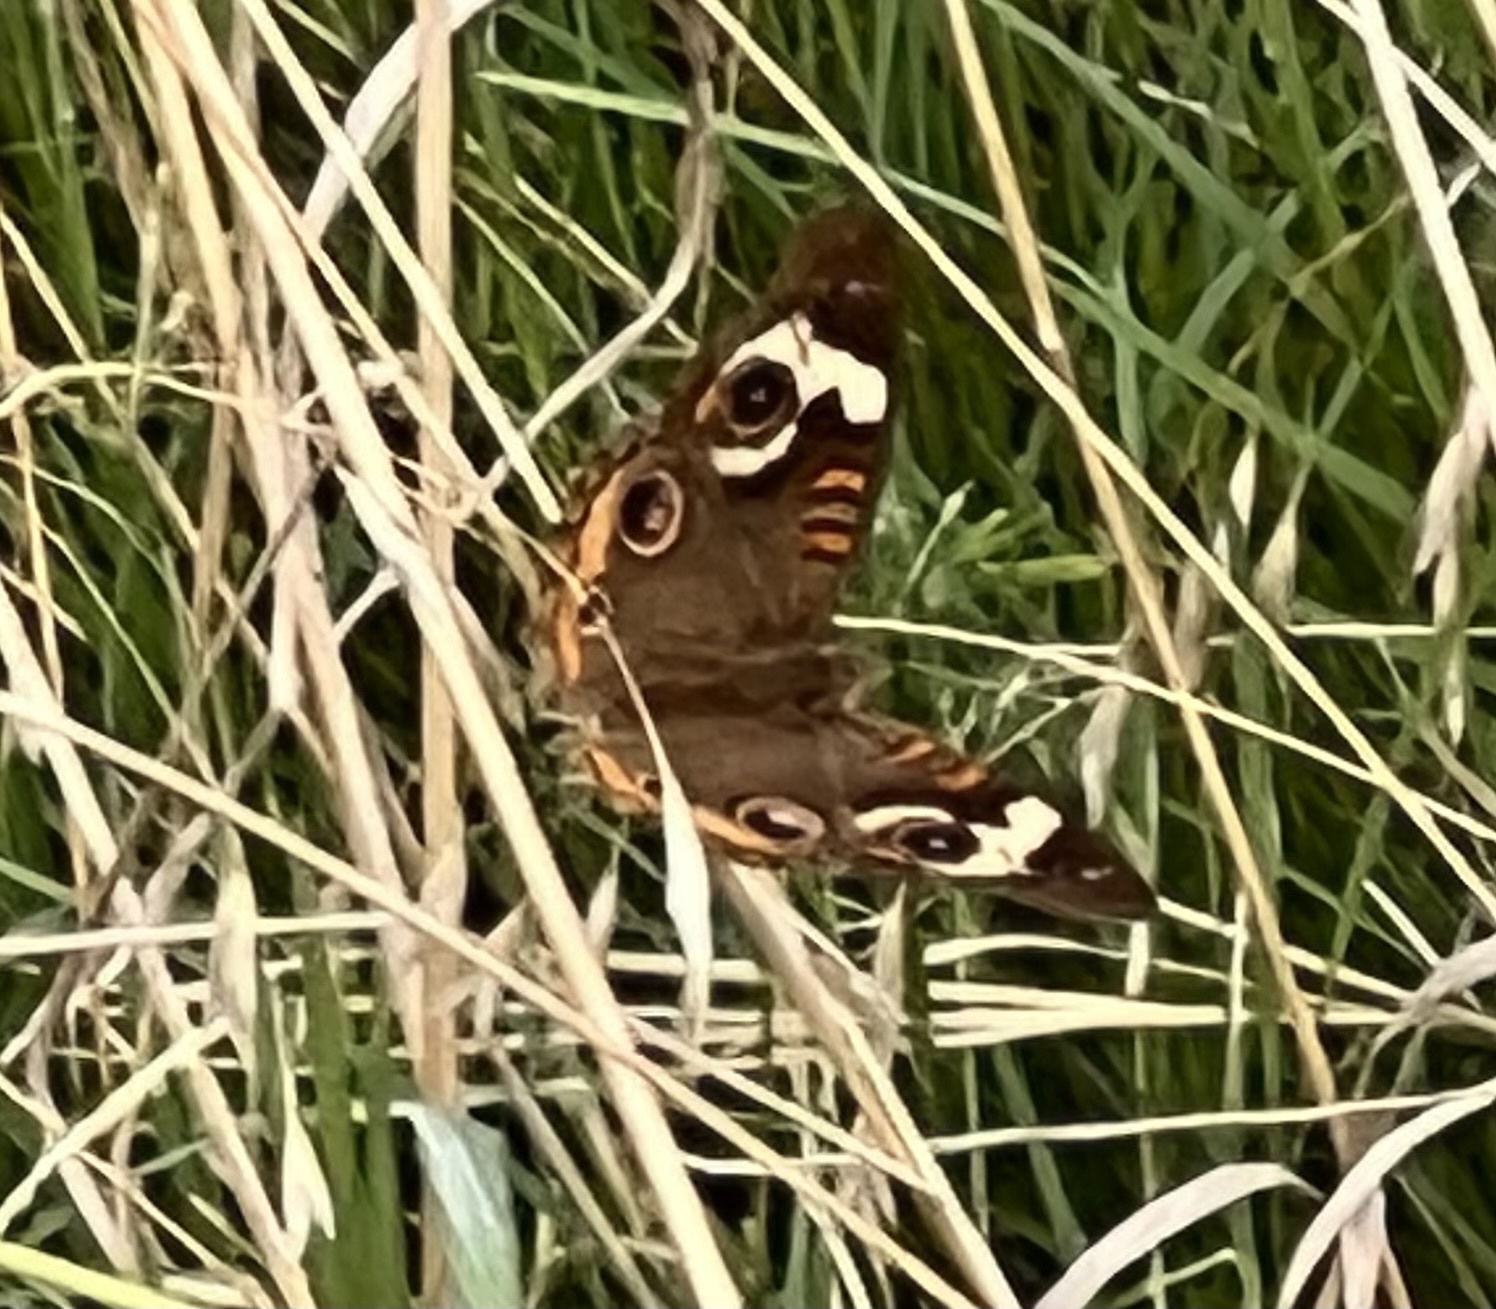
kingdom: Animalia
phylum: Arthropoda
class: Insecta
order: Lepidoptera
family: Nymphalidae
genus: Junonia
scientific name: Junonia coenia
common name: Common buckeye
